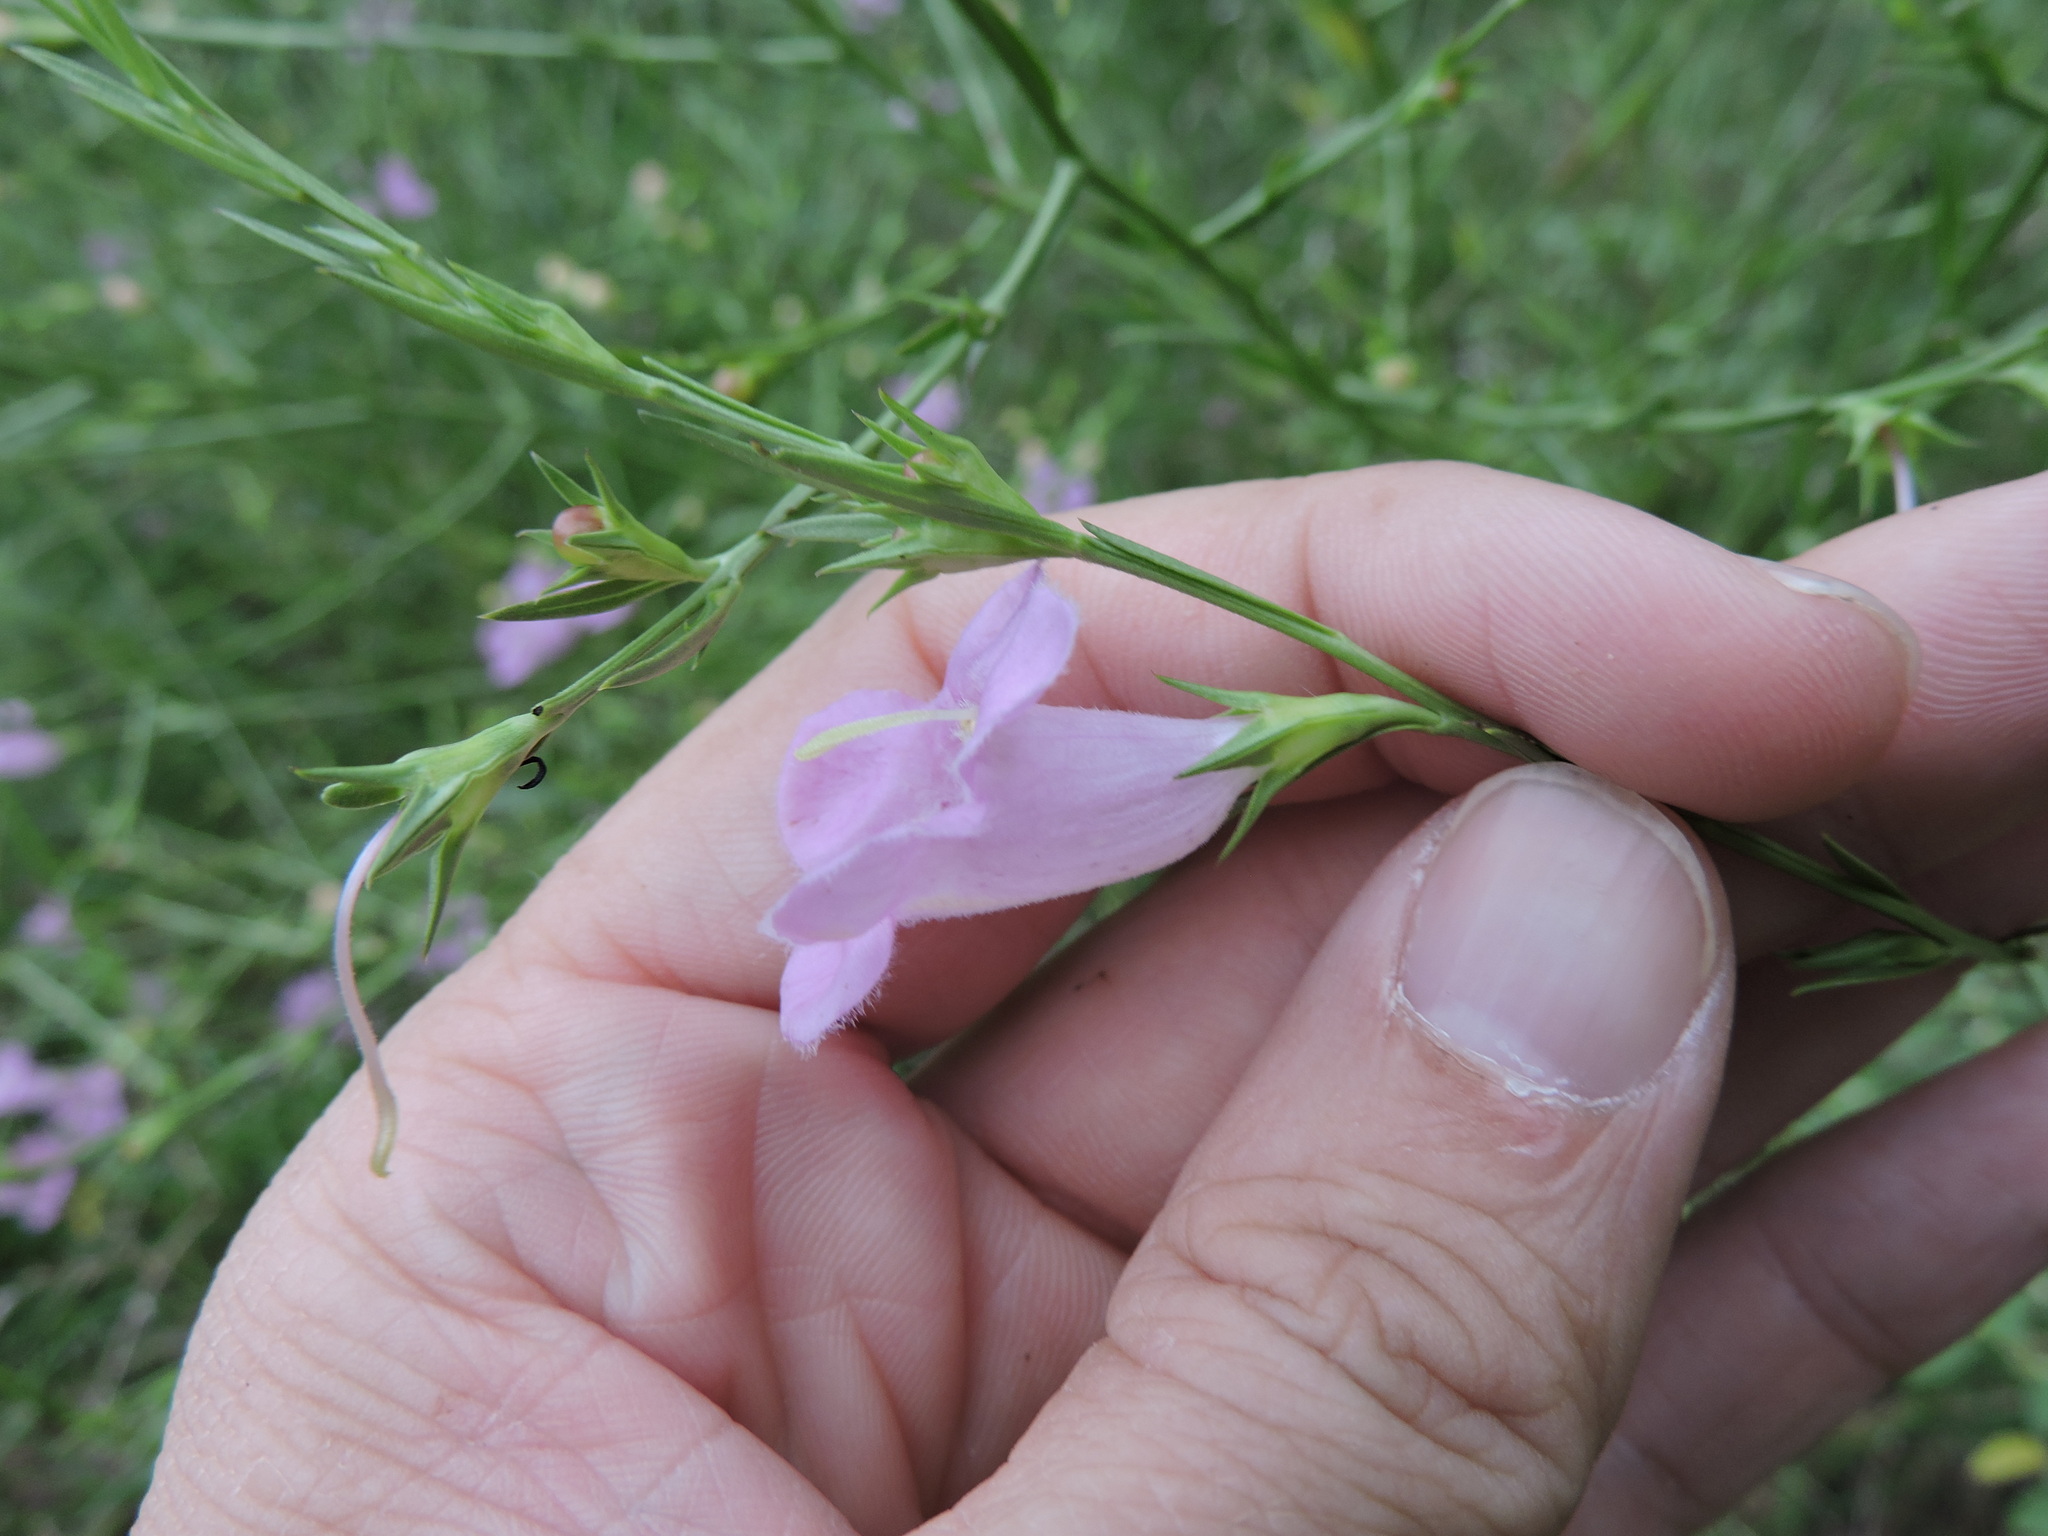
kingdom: Plantae
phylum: Tracheophyta
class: Magnoliopsida
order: Lamiales
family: Orobanchaceae
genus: Agalinis
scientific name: Agalinis heterophylla
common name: Prairie agalinis
